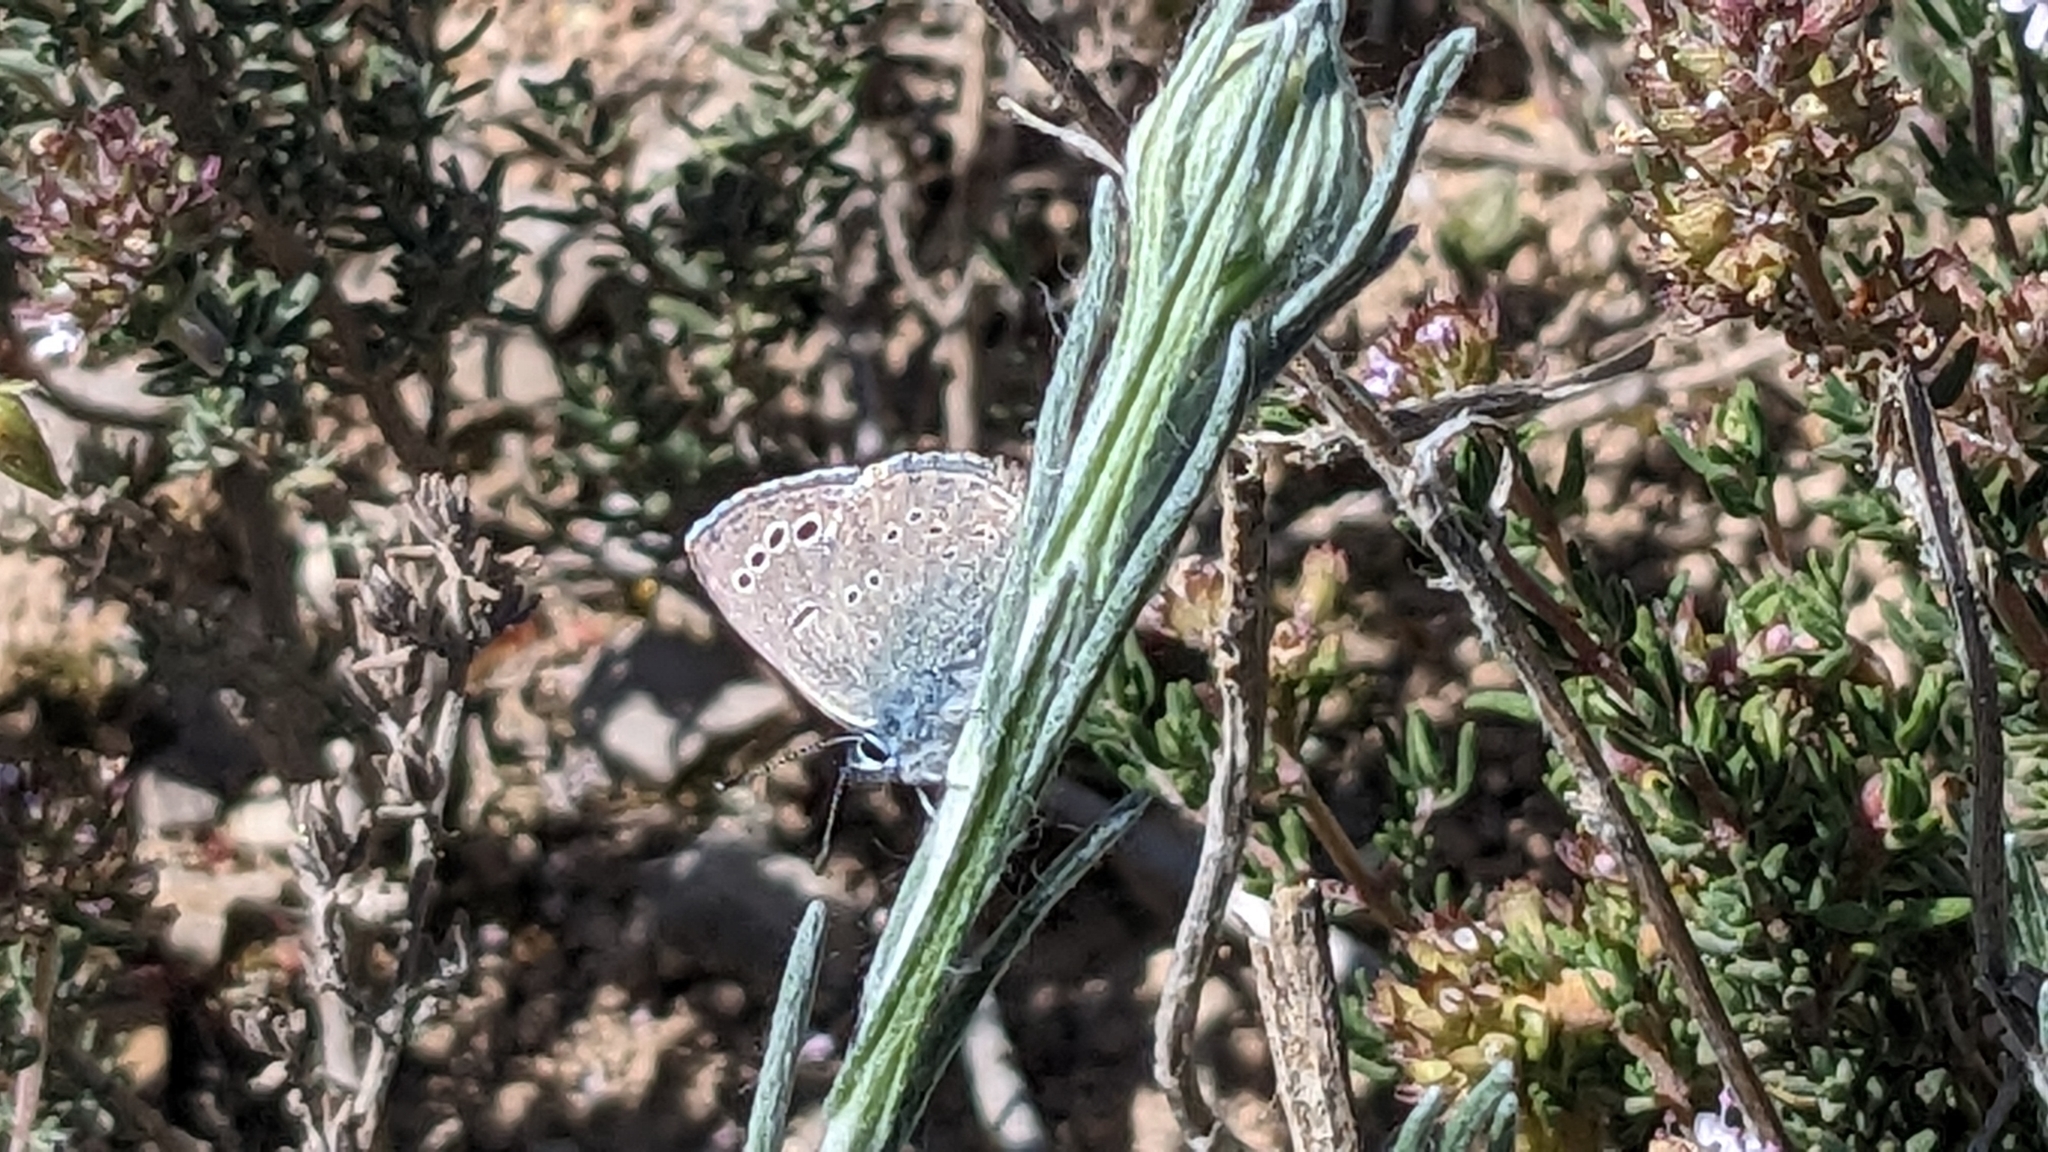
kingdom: Animalia
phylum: Arthropoda
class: Insecta
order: Lepidoptera
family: Lycaenidae
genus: Glaucopsyche
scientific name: Glaucopsyche melanops
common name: Black-eyed blue
